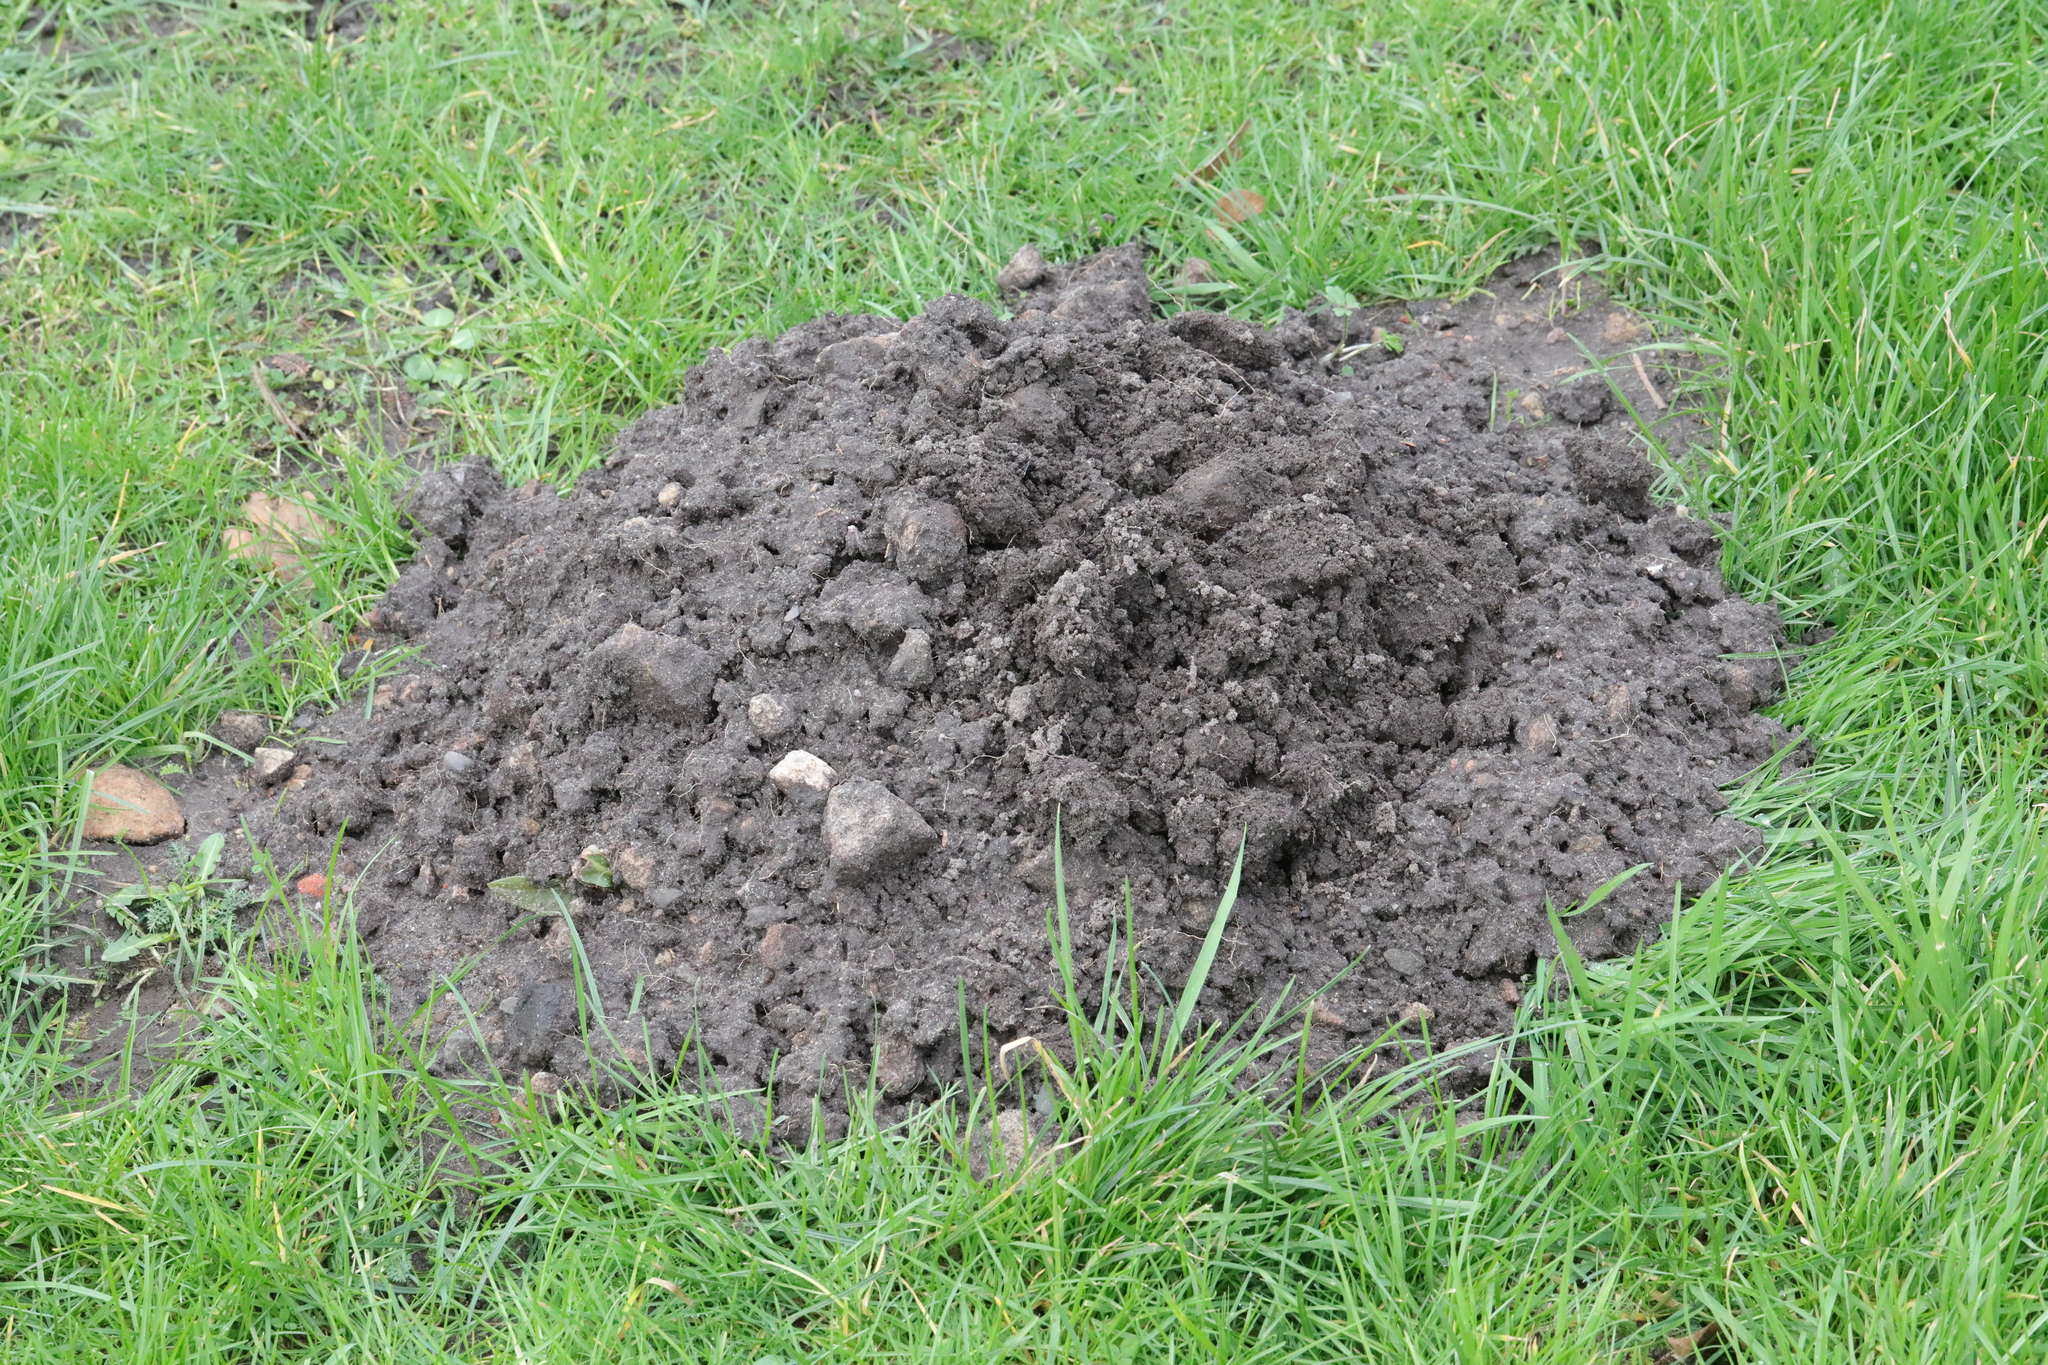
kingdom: Animalia
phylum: Chordata
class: Mammalia
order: Soricomorpha
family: Talpidae
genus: Talpa
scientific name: Talpa europaea
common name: European mole
